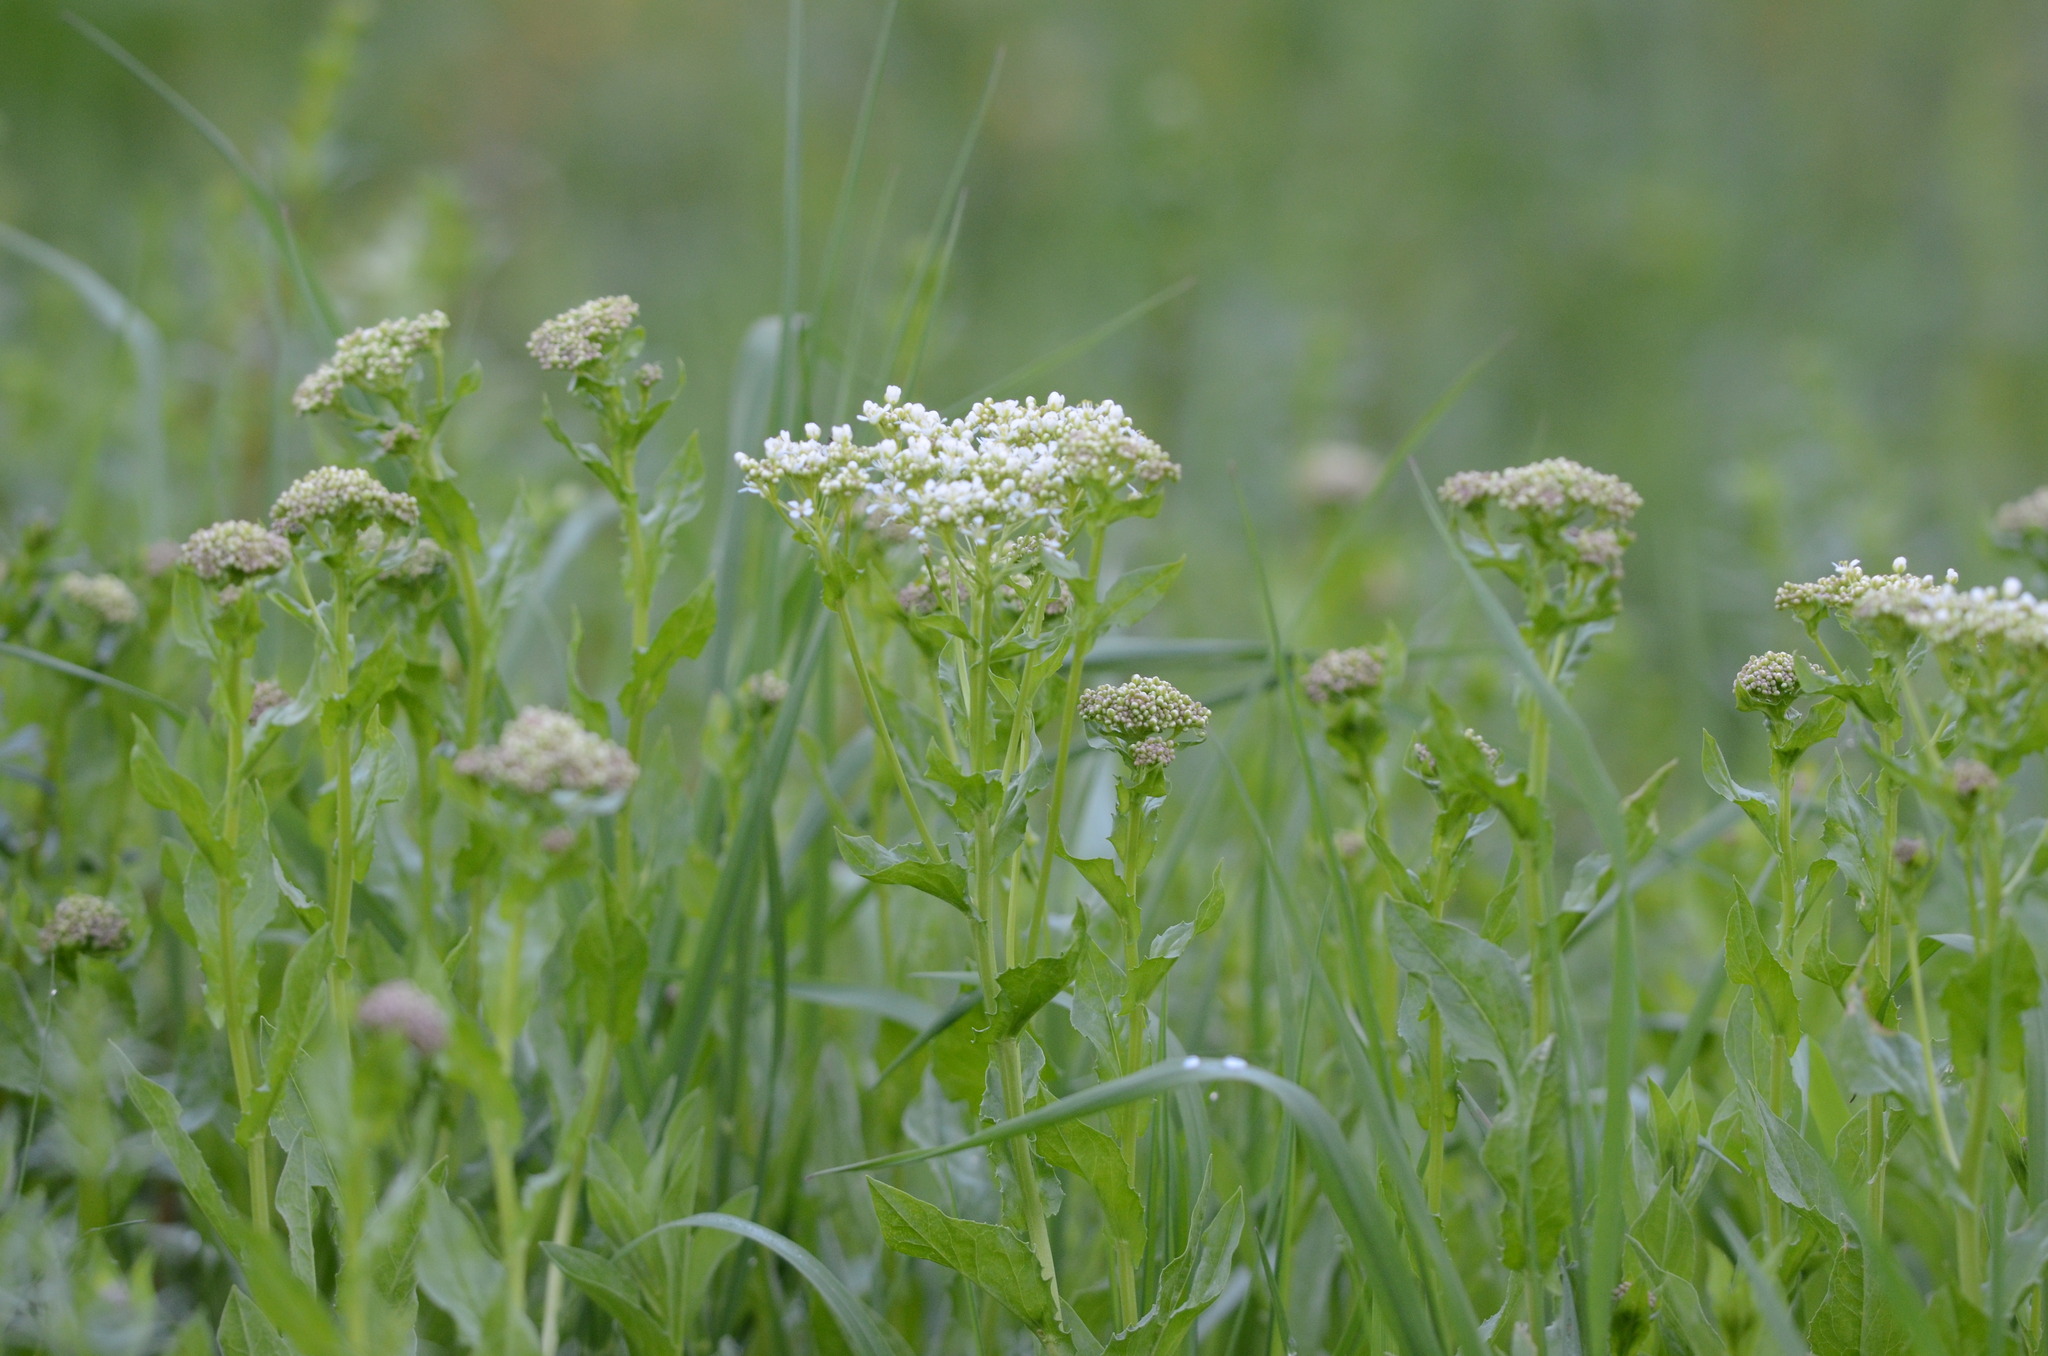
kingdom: Plantae
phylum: Tracheophyta
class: Magnoliopsida
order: Brassicales
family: Brassicaceae
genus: Lepidium
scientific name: Lepidium draba
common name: Hoary cress
